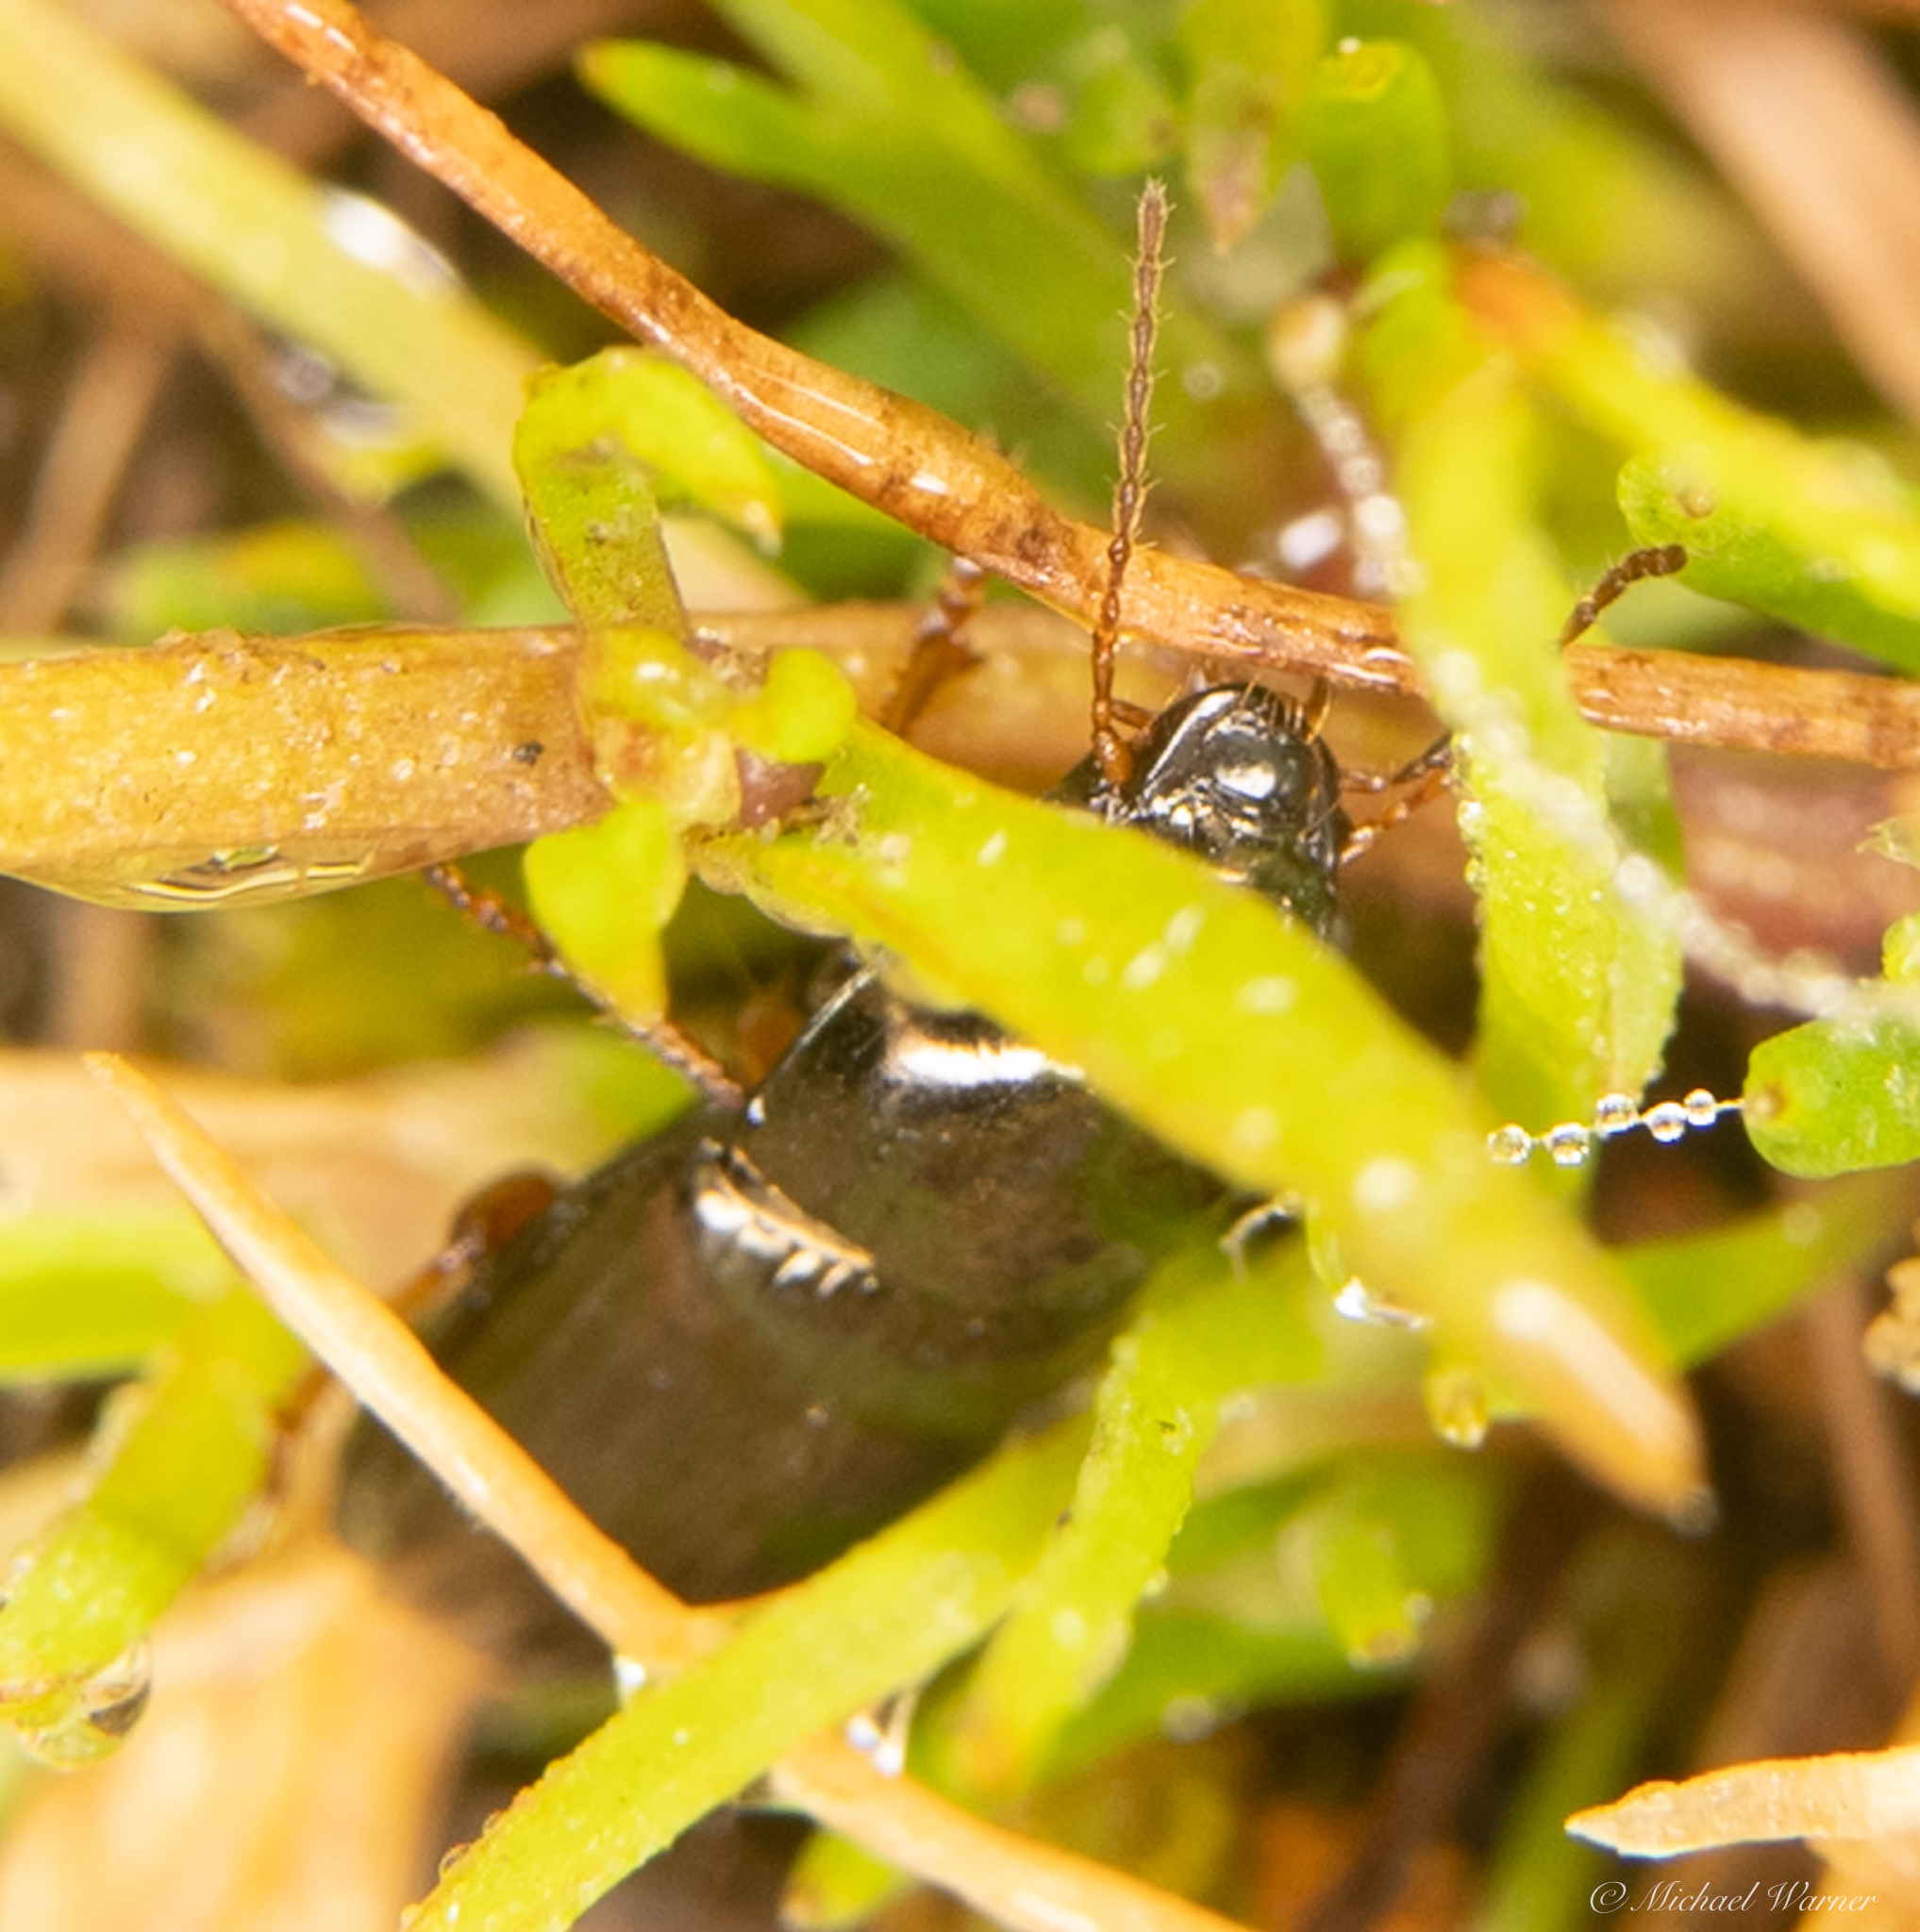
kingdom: Animalia
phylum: Chordata
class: Amphibia
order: Caudata
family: Plethodontidae
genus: Batrachoseps
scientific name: Batrachoseps attenuatus
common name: California slender salamander
